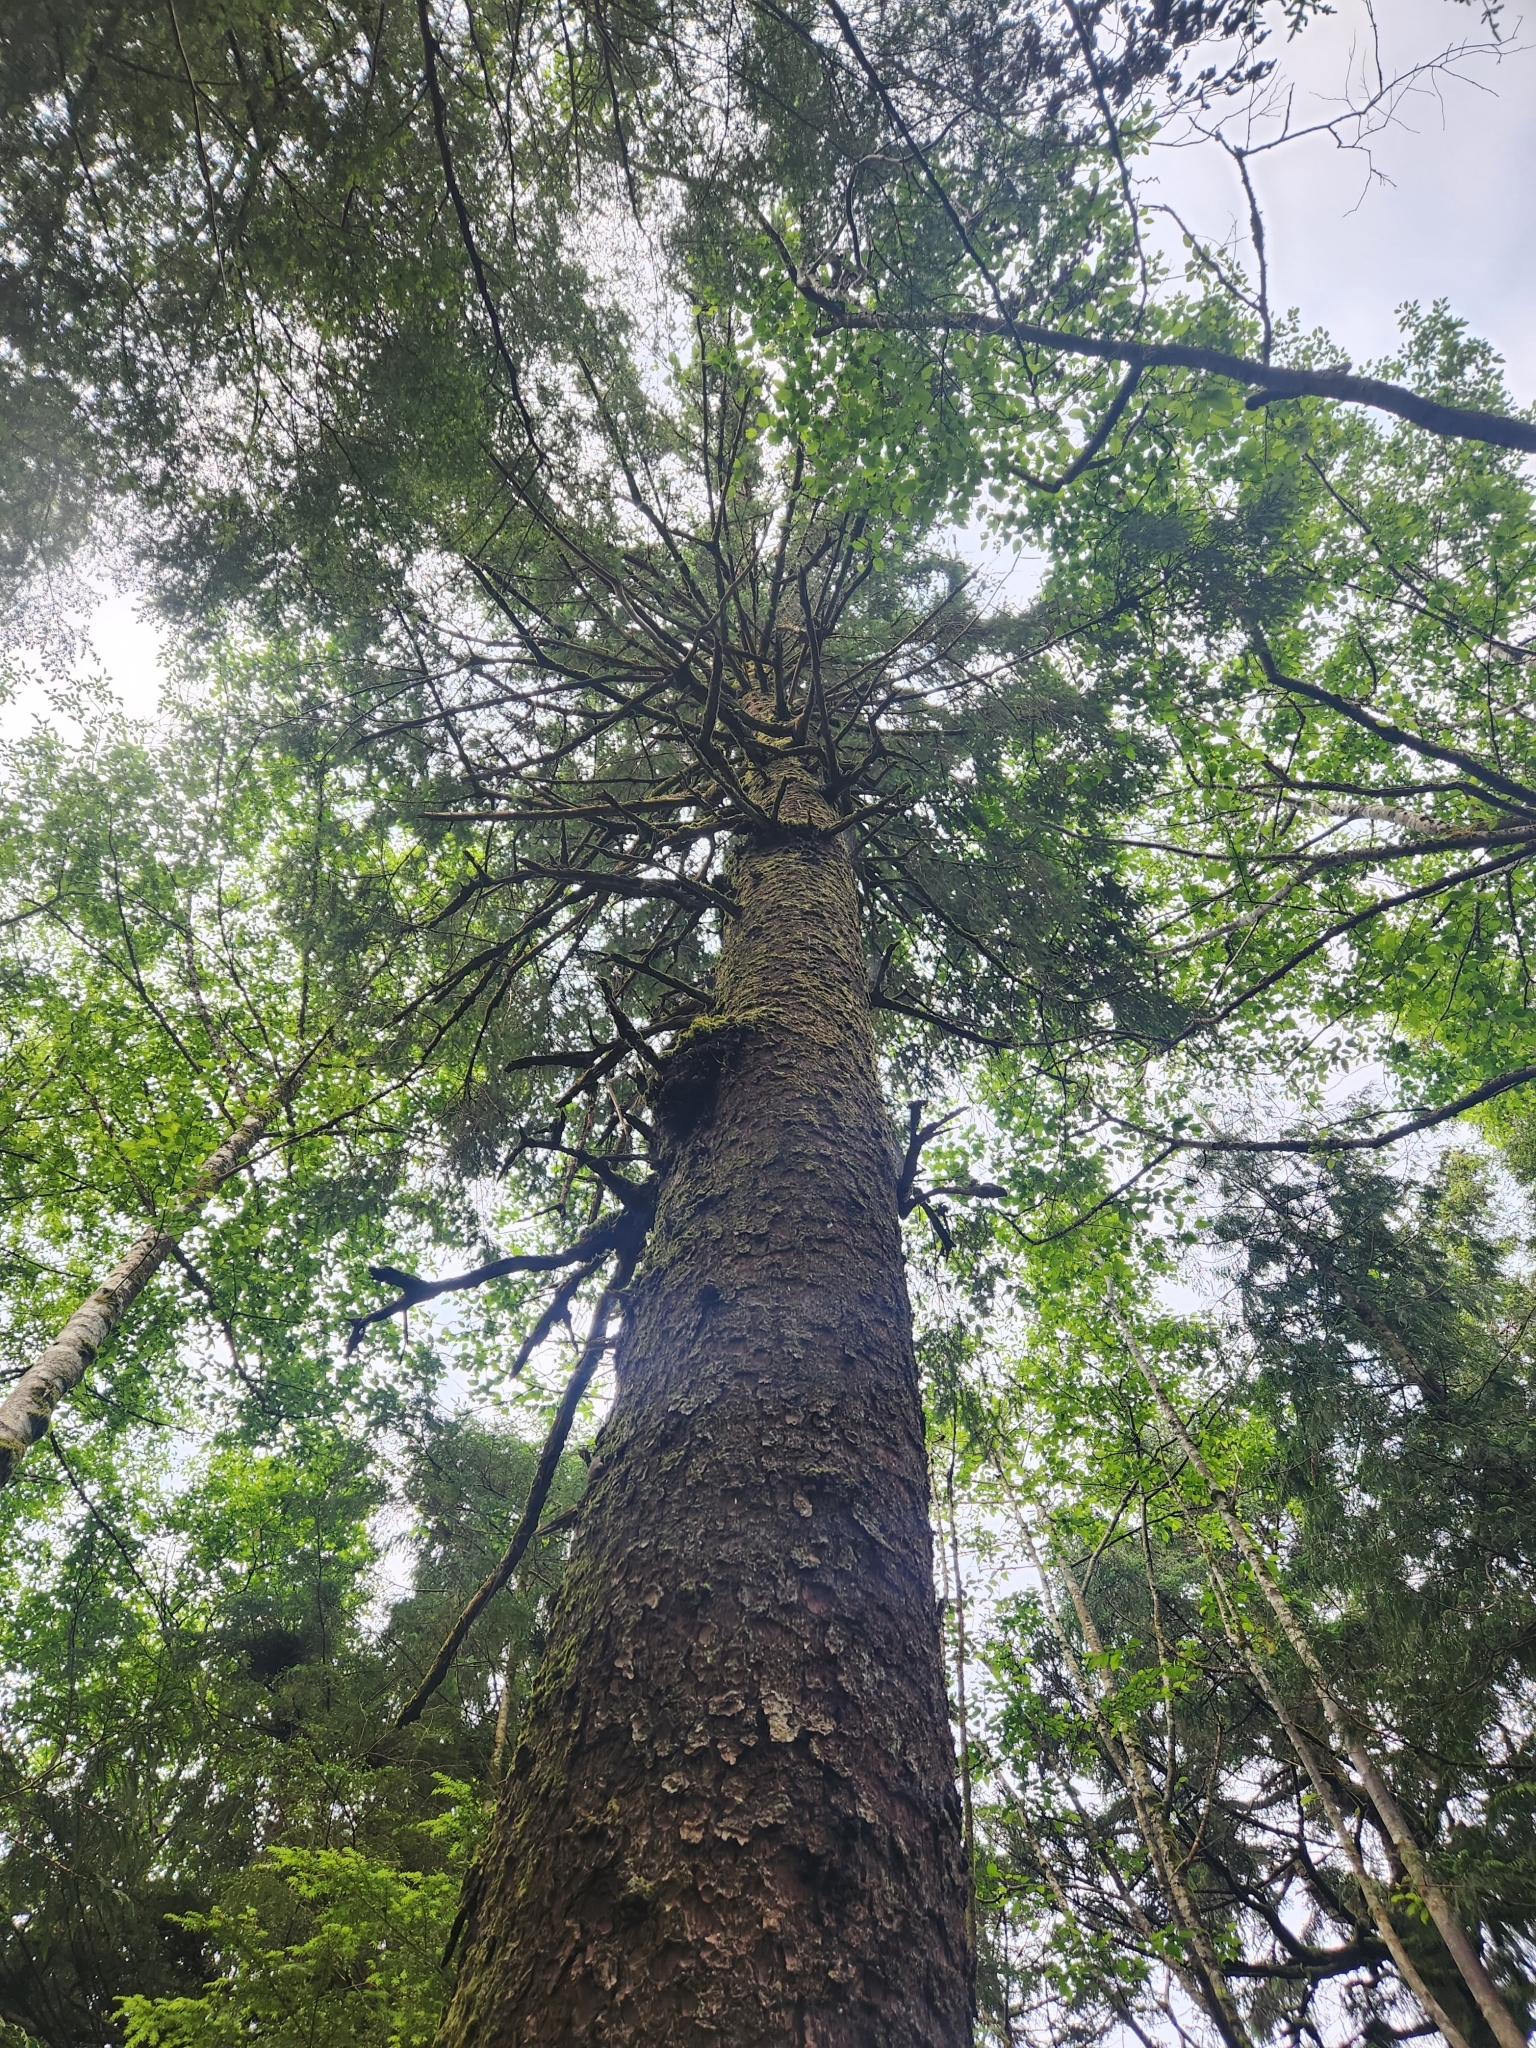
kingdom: Plantae
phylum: Tracheophyta
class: Pinopsida
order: Pinales
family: Pinaceae
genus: Picea
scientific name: Picea sitchensis
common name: Sitka spruce
